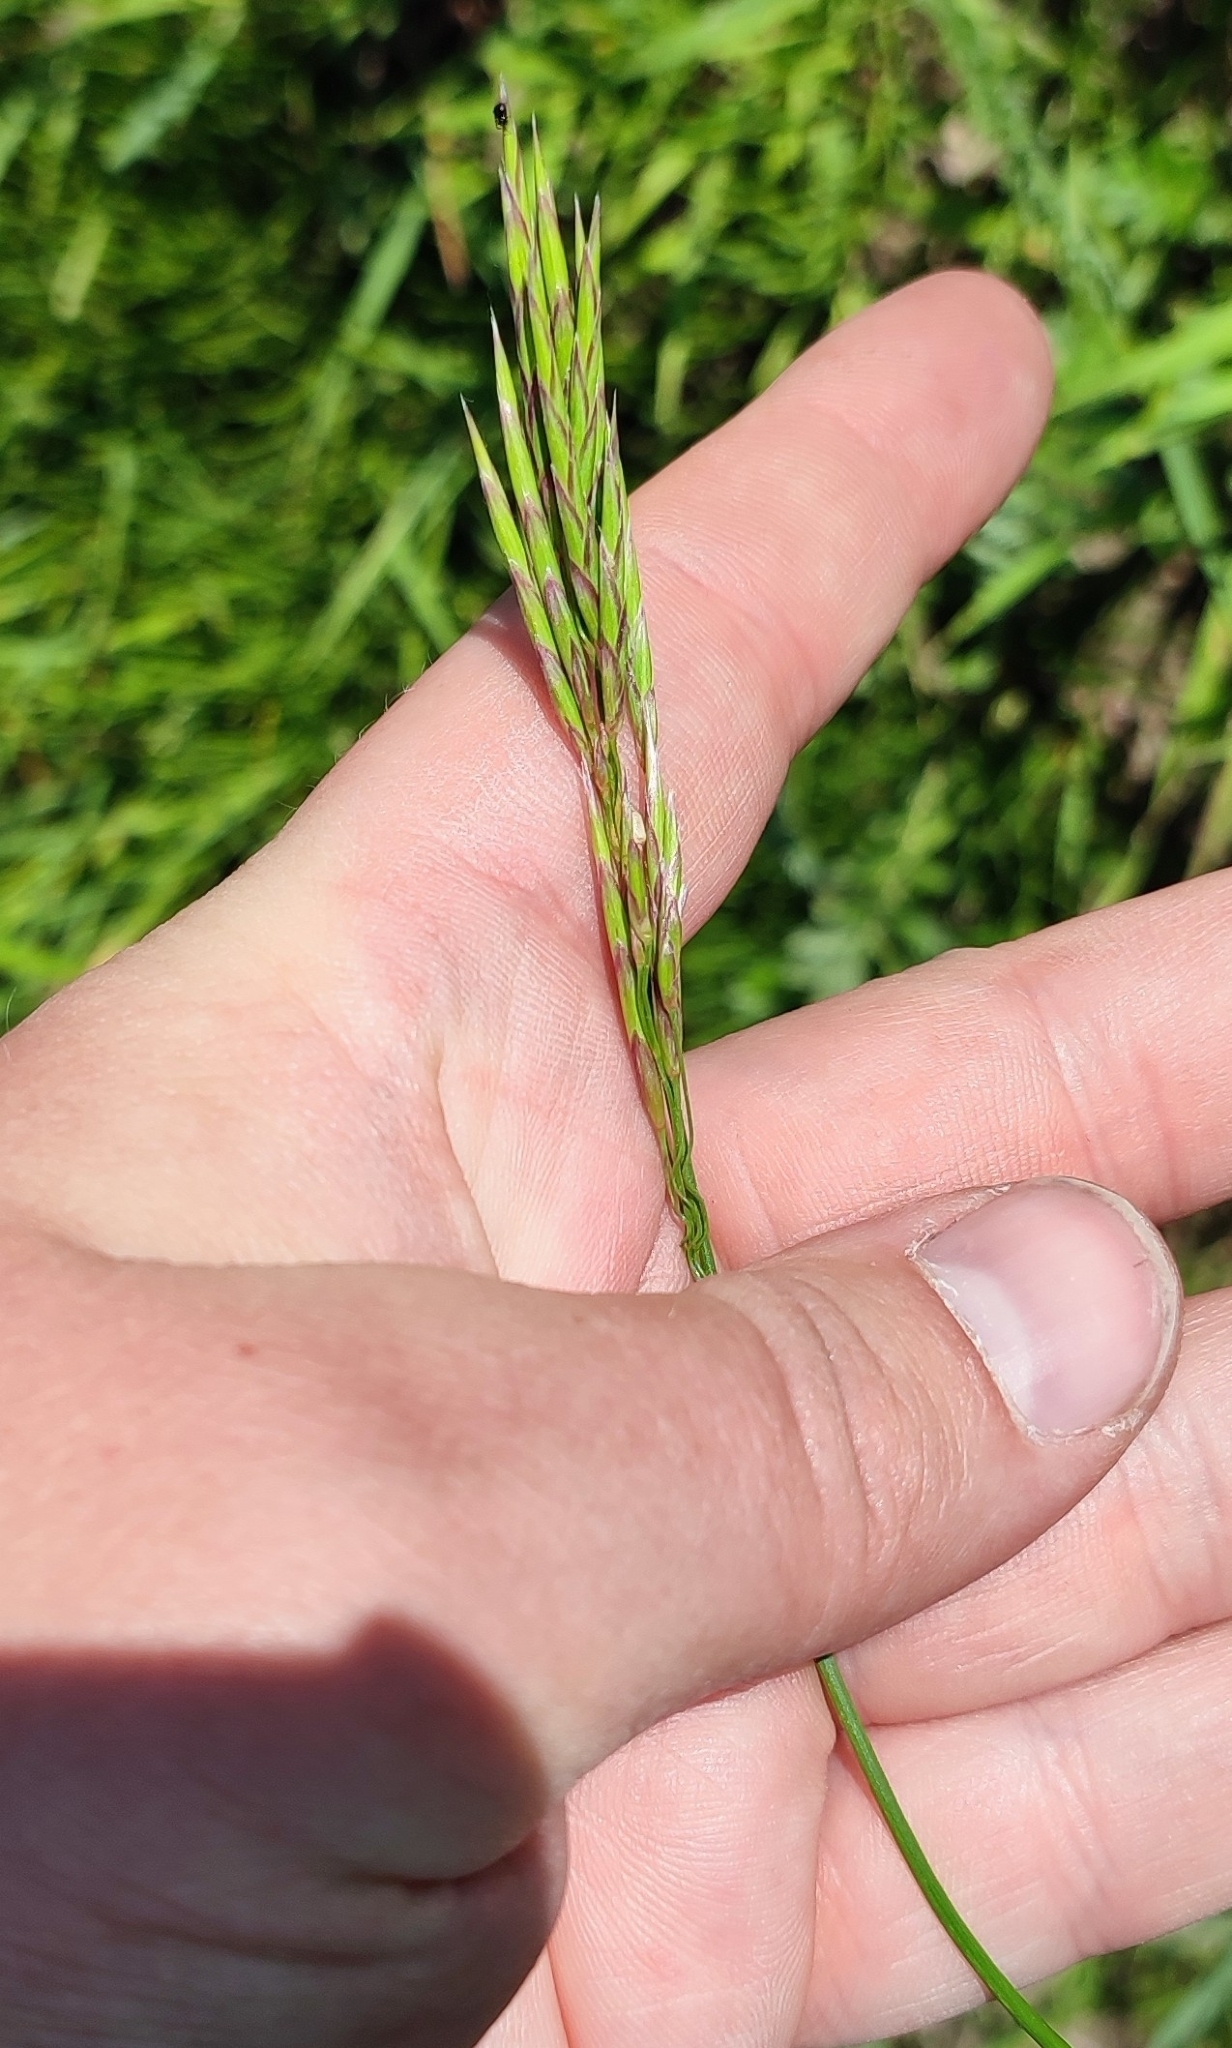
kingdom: Plantae
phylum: Tracheophyta
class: Liliopsida
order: Poales
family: Poaceae
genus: Bromus
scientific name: Bromus inermis
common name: Smooth brome
